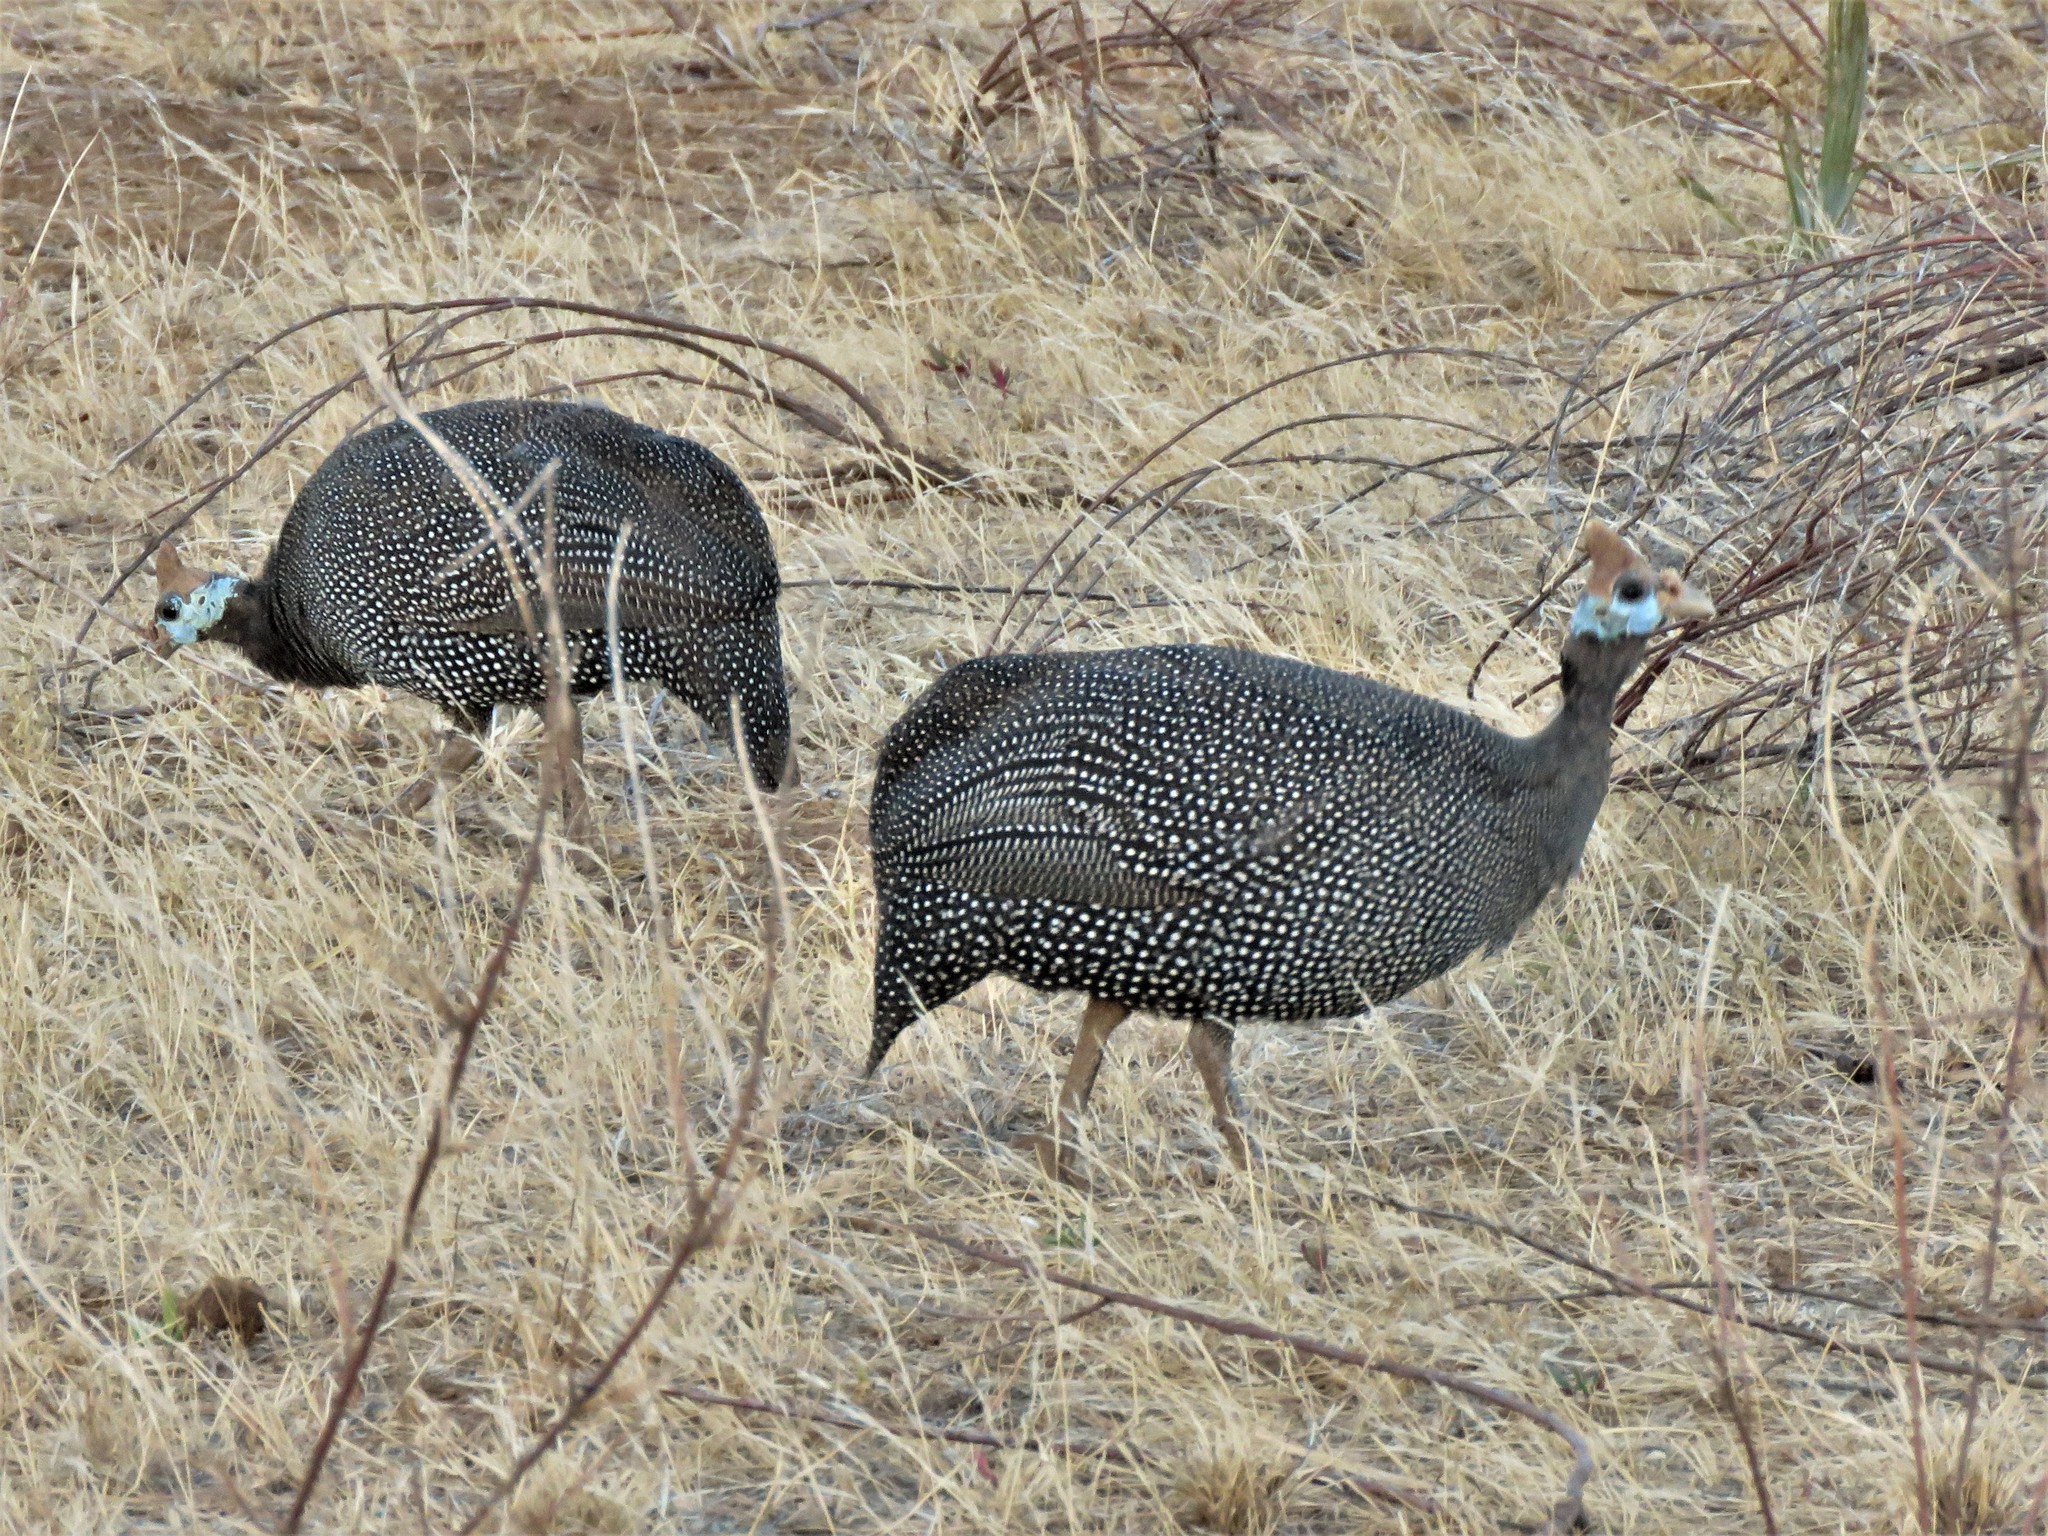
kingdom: Animalia
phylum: Chordata
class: Aves
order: Galliformes
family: Numididae
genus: Numida
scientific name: Numida meleagris
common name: Helmeted guineafowl
